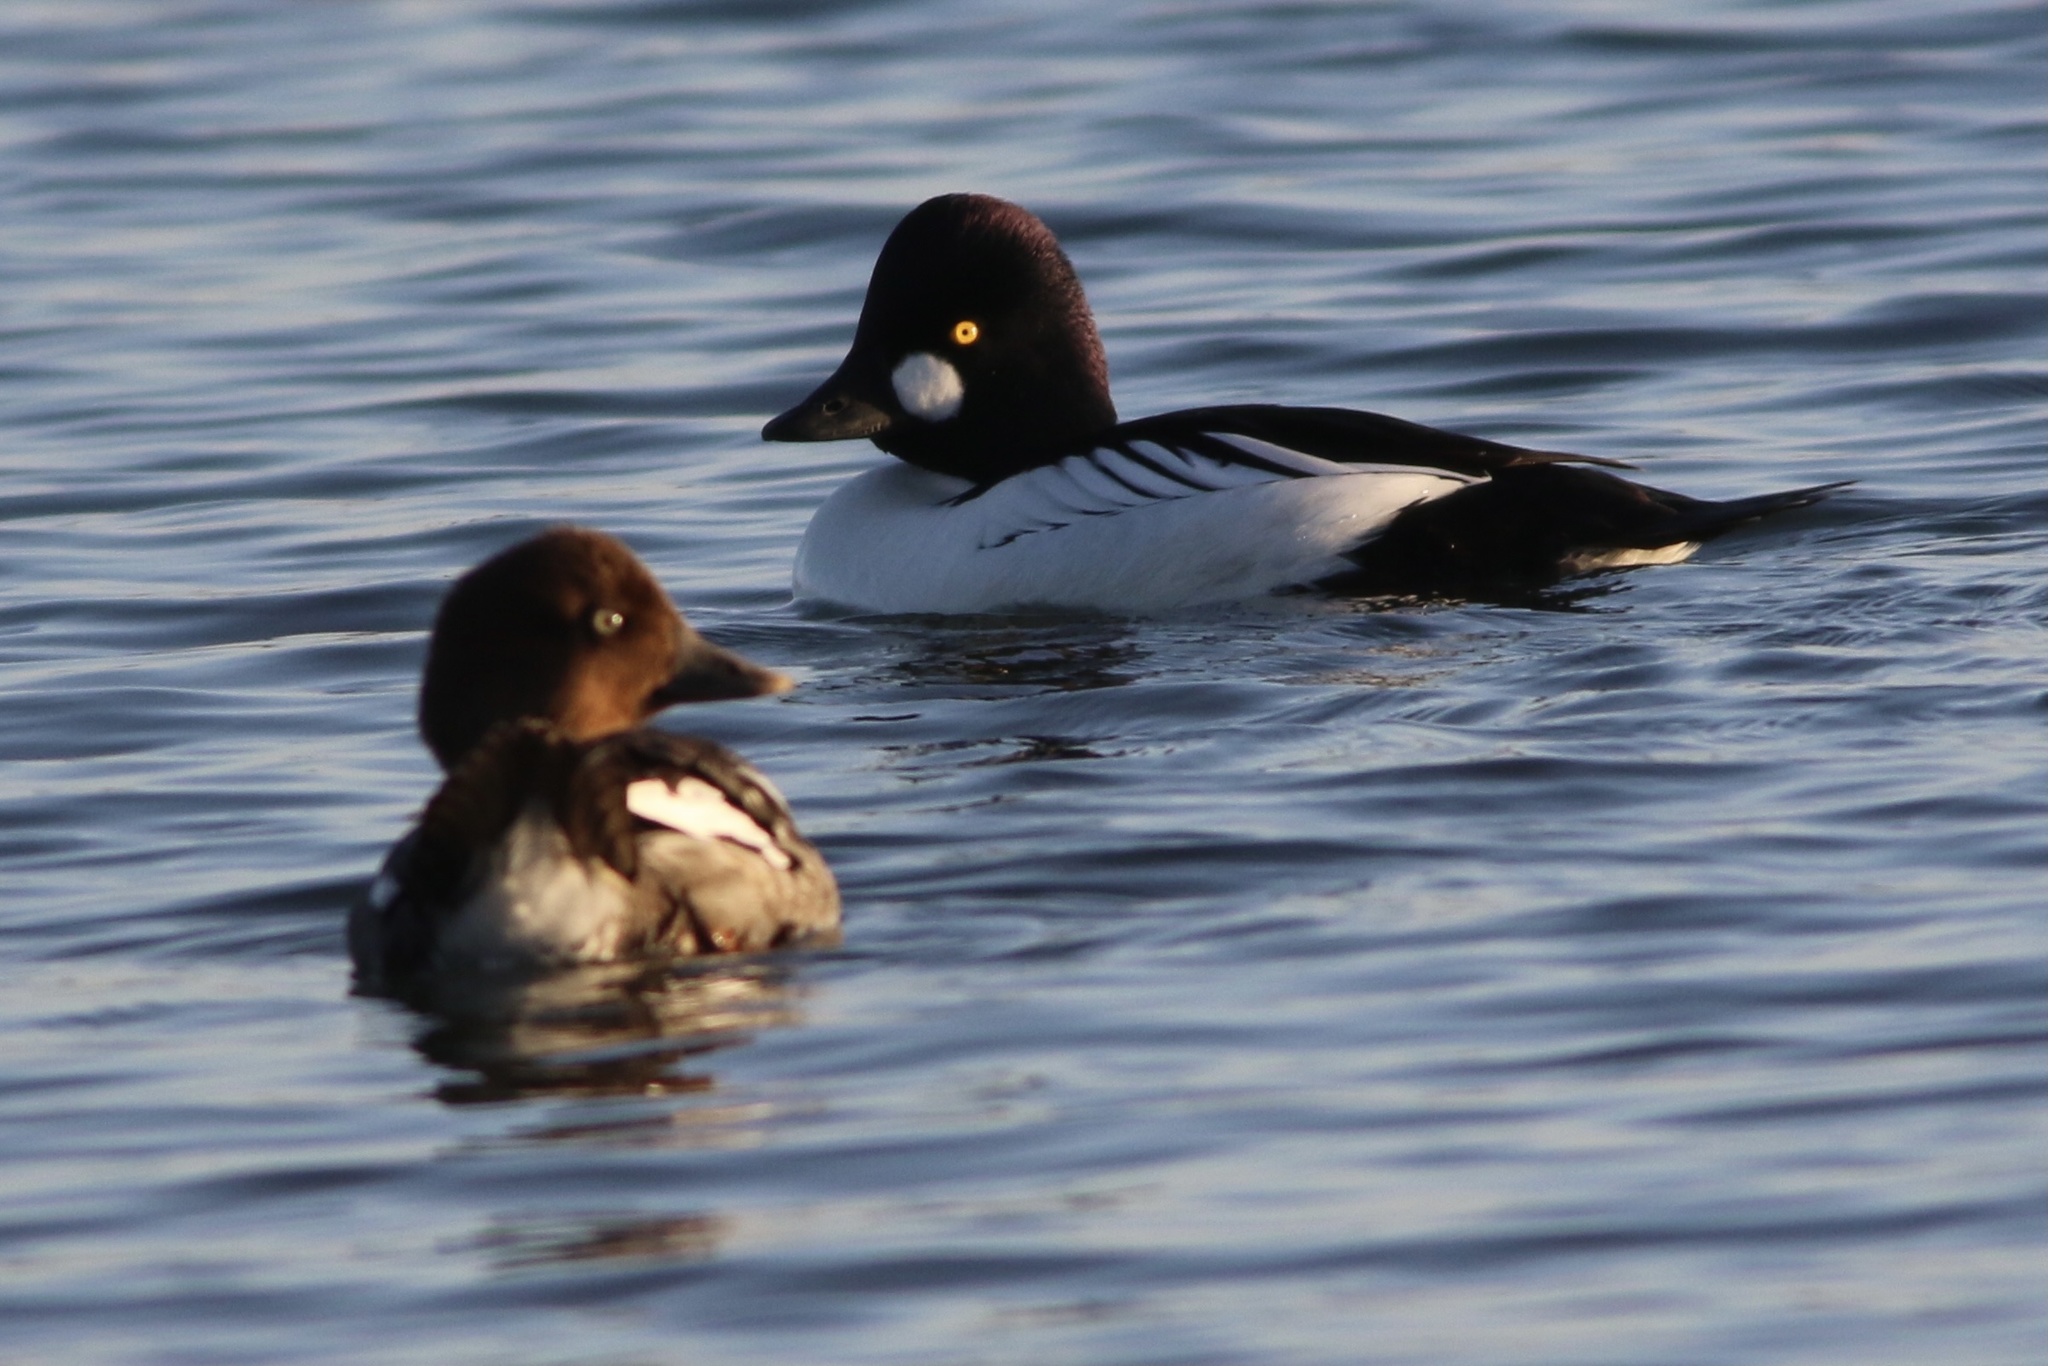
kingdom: Animalia
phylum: Chordata
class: Aves
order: Anseriformes
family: Anatidae
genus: Bucephala
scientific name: Bucephala clangula
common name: Common goldeneye
